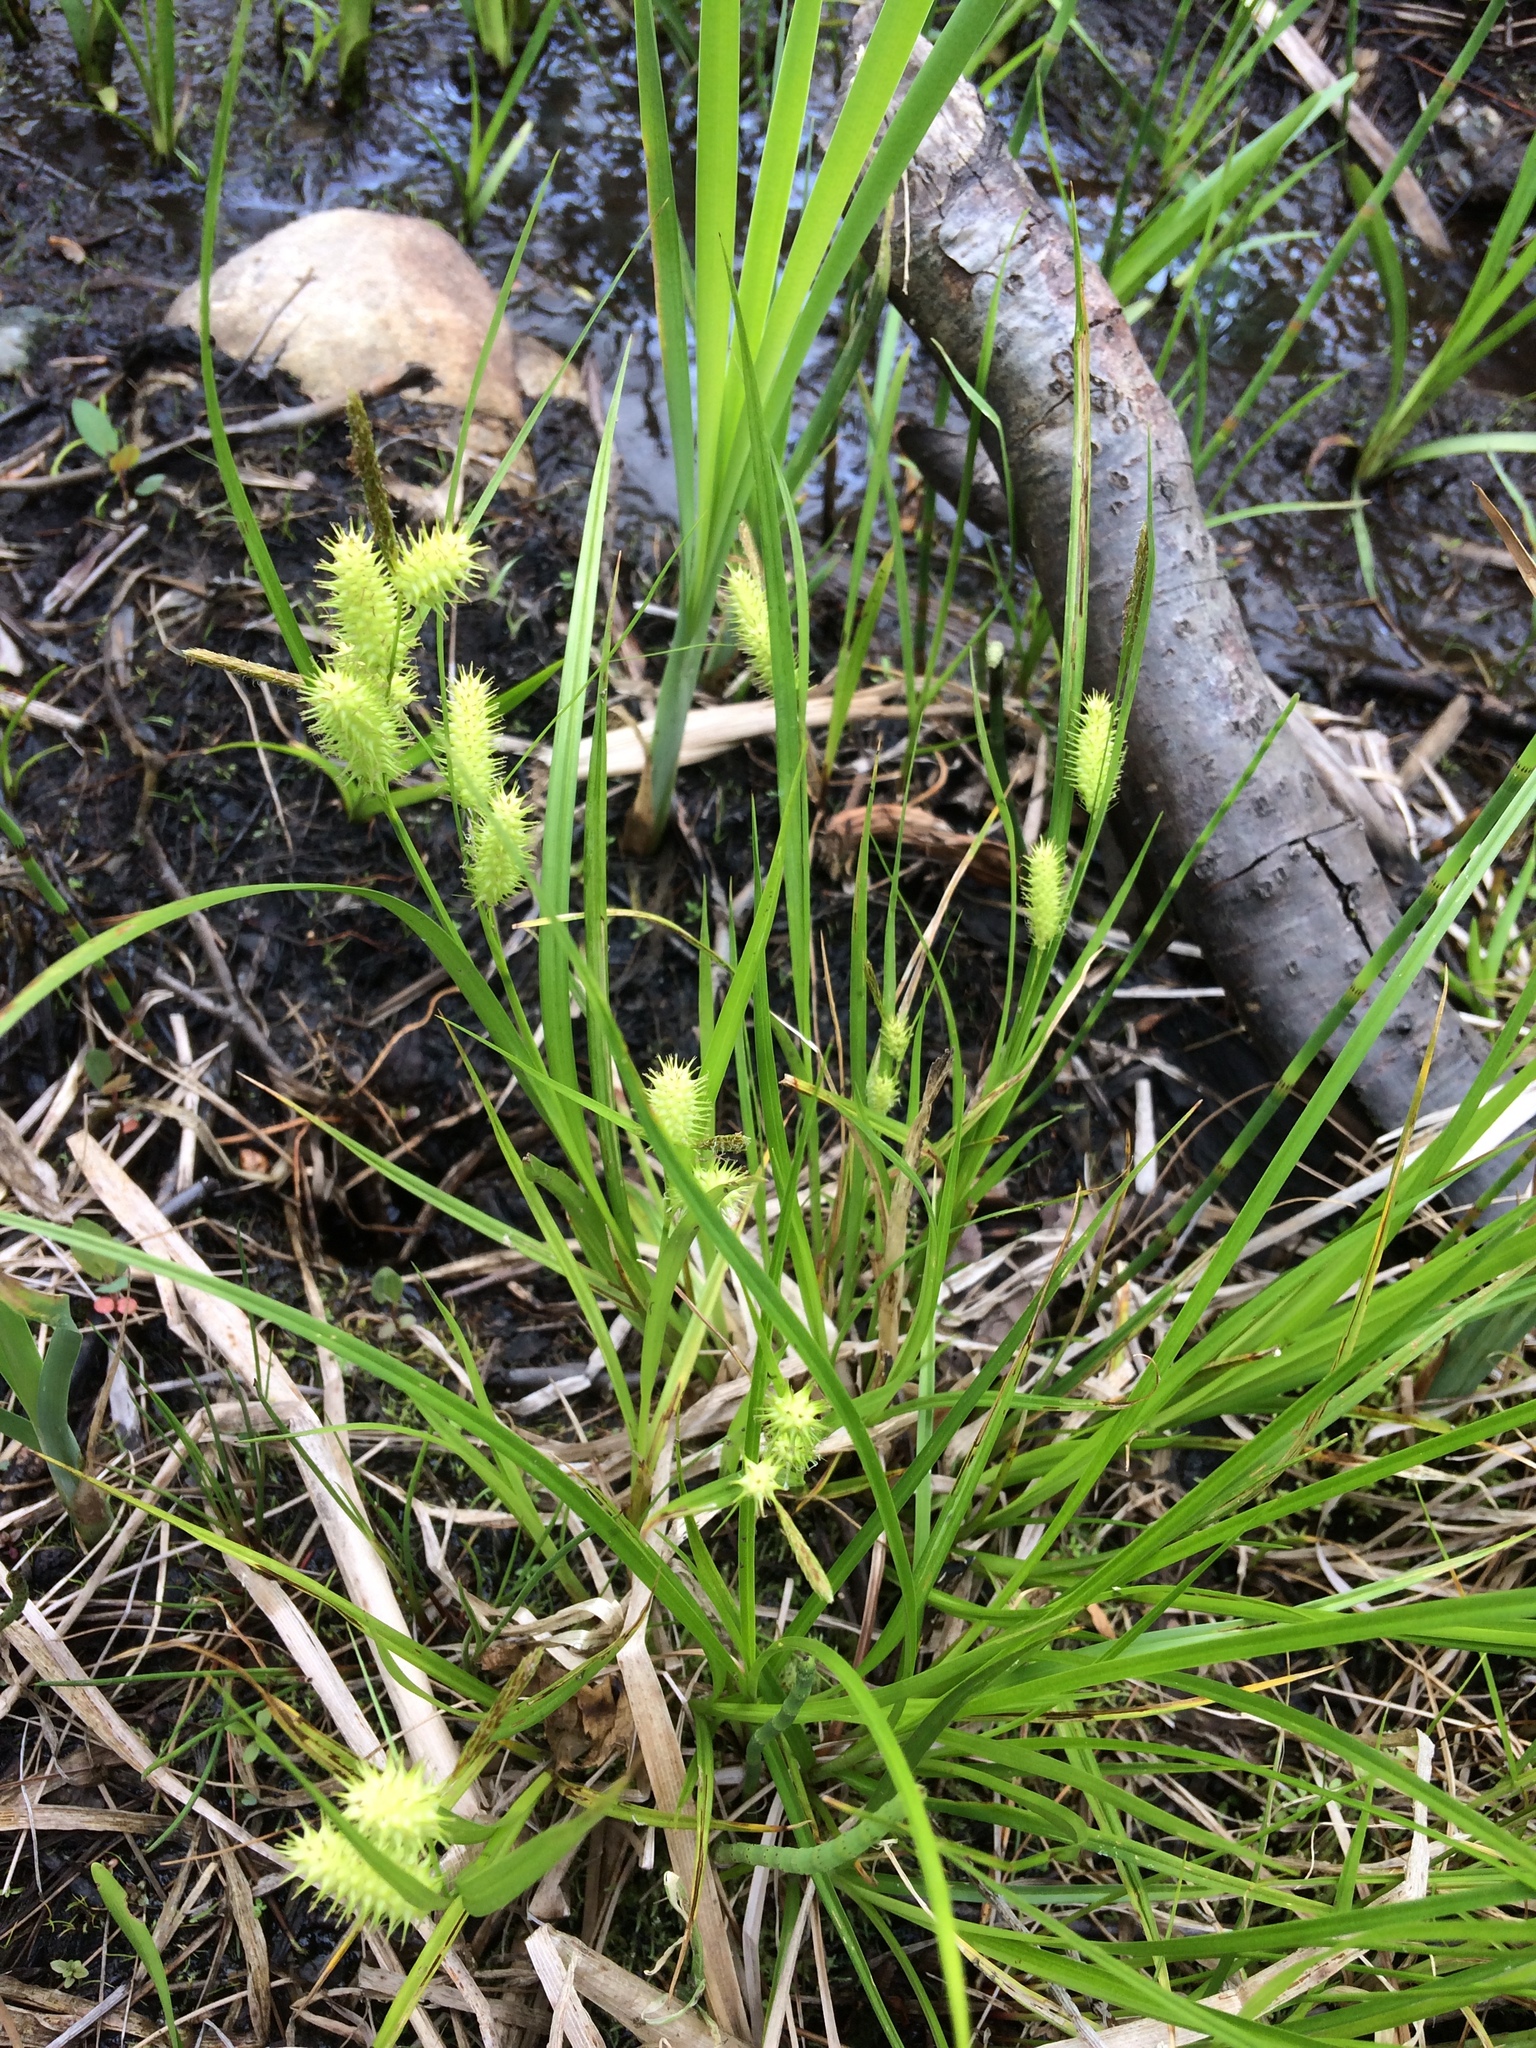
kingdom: Plantae
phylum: Tracheophyta
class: Liliopsida
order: Poales
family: Cyperaceae
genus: Carex
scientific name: Carex lurida
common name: Sallow sedge
